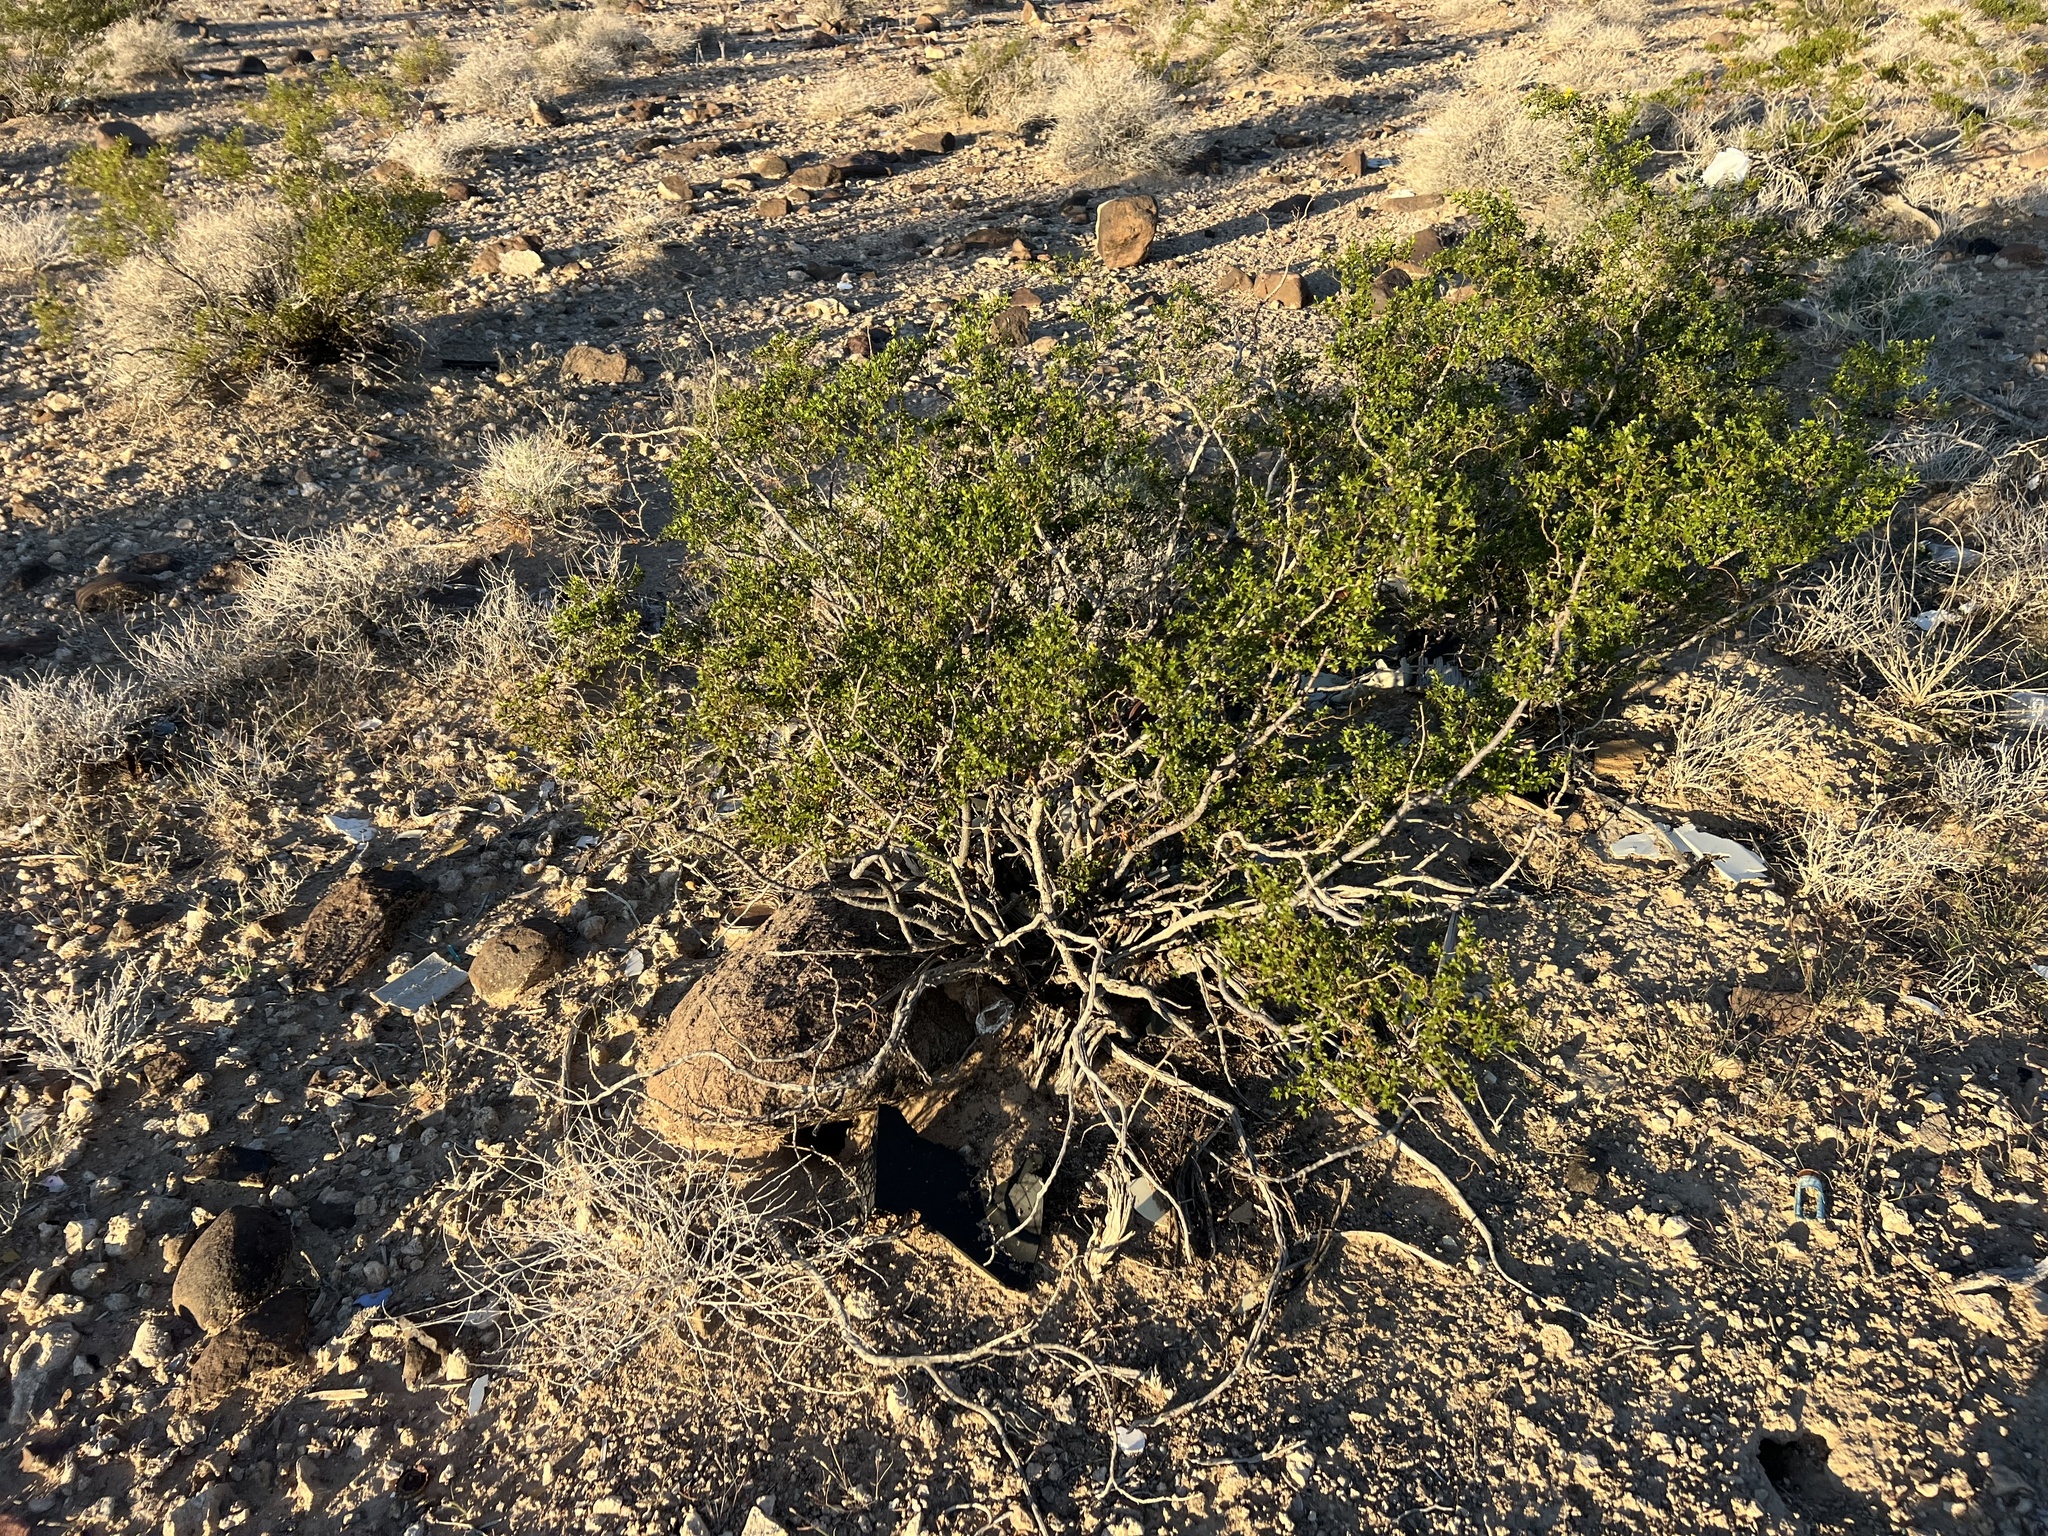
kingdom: Plantae
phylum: Tracheophyta
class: Magnoliopsida
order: Zygophyllales
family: Zygophyllaceae
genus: Larrea
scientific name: Larrea tridentata
